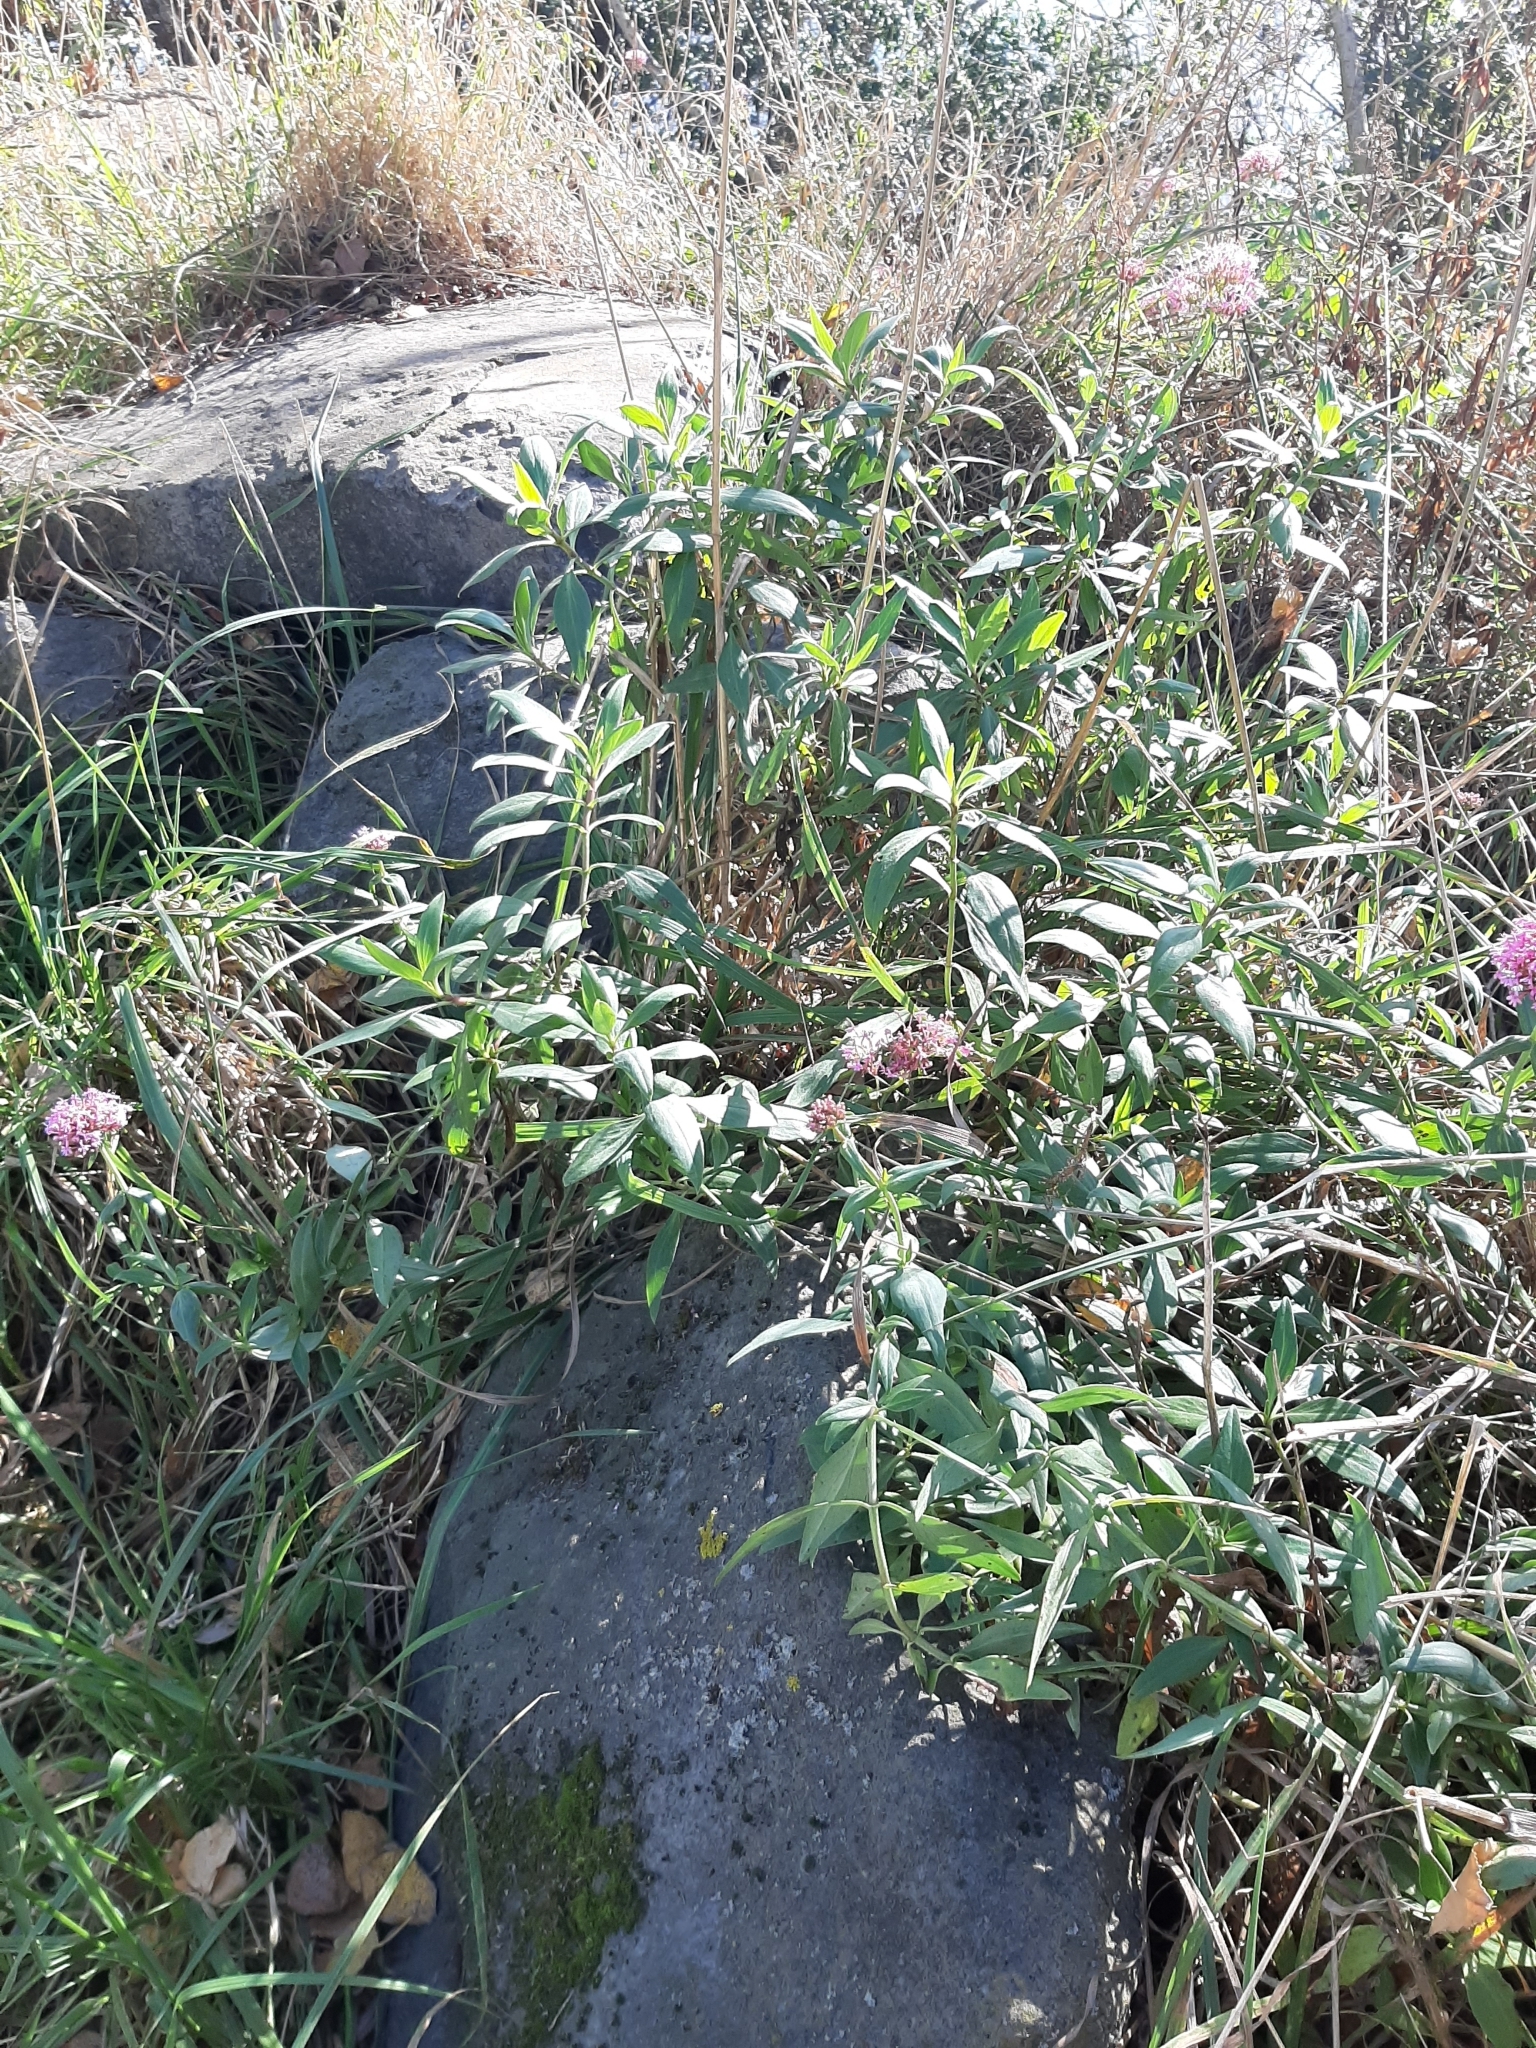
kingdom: Plantae
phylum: Tracheophyta
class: Magnoliopsida
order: Dipsacales
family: Caprifoliaceae
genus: Centranthus
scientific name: Centranthus ruber
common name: Red valerian
